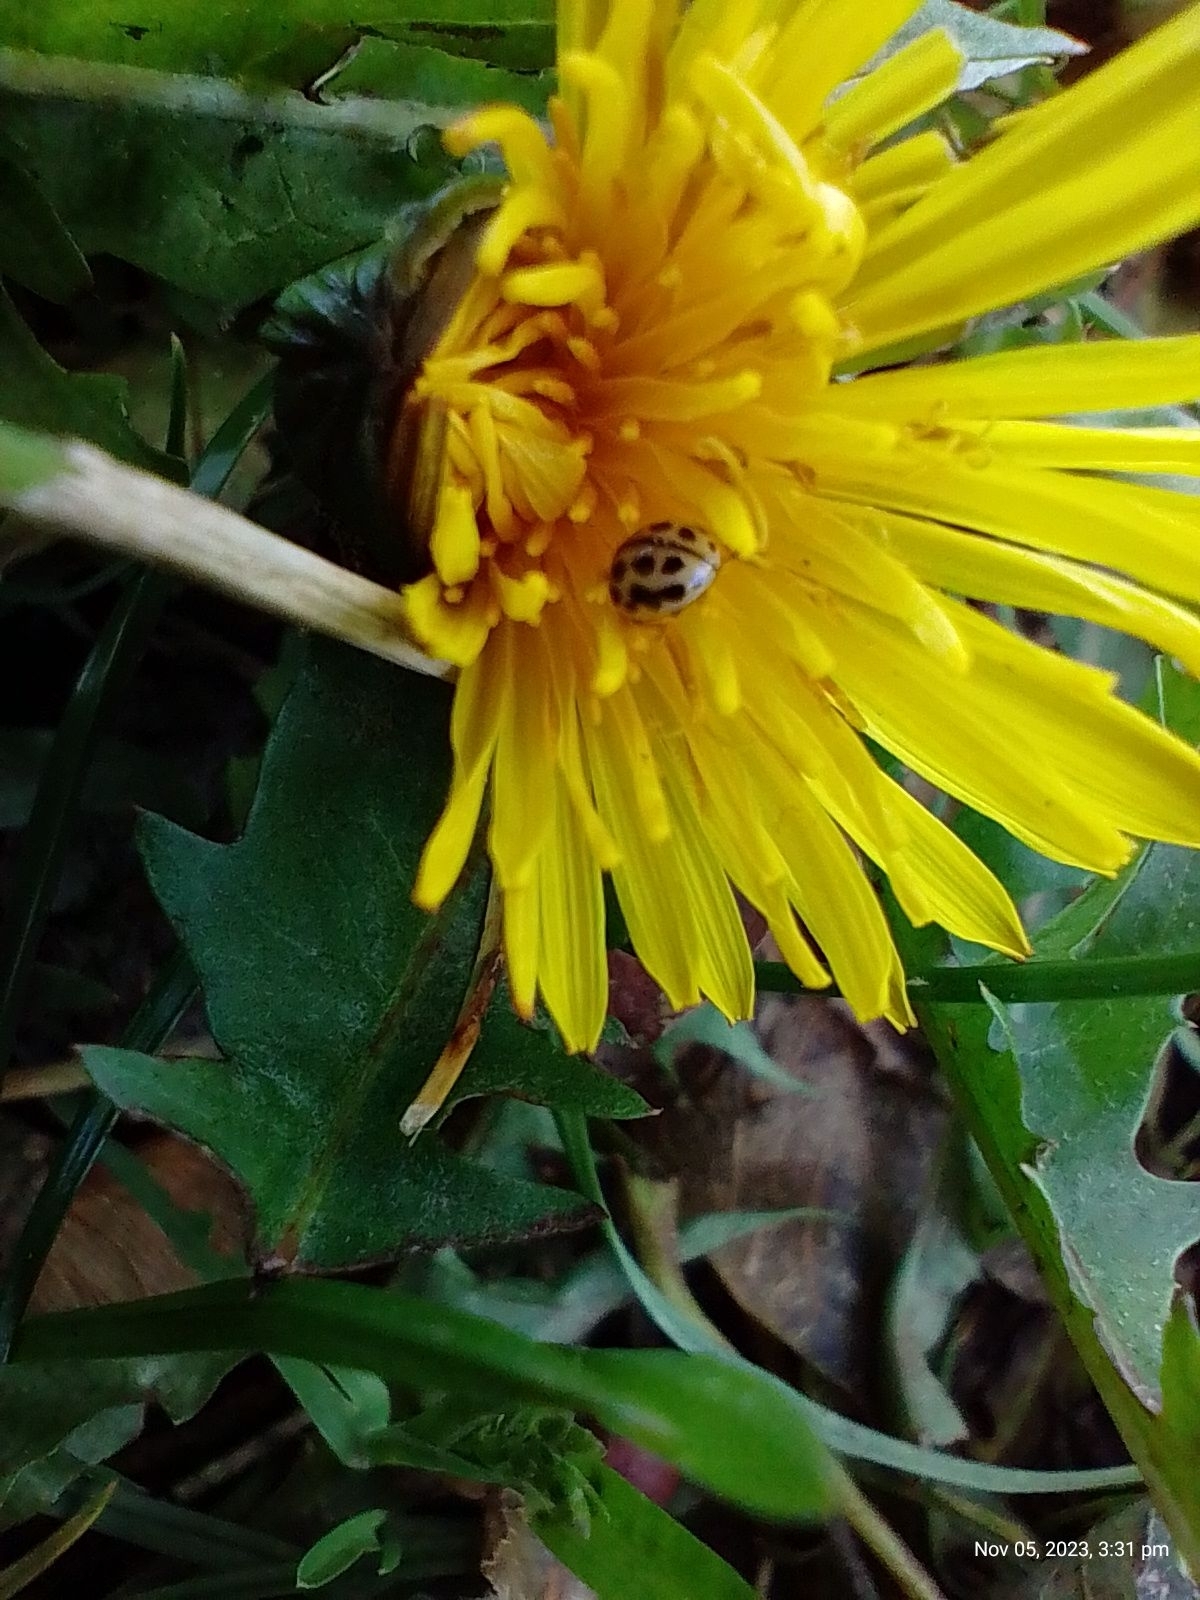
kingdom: Animalia
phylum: Arthropoda
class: Insecta
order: Coleoptera
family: Coccinellidae
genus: Tytthaspis
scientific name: Tytthaspis sedecimpunctata
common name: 16-spot ladybird
